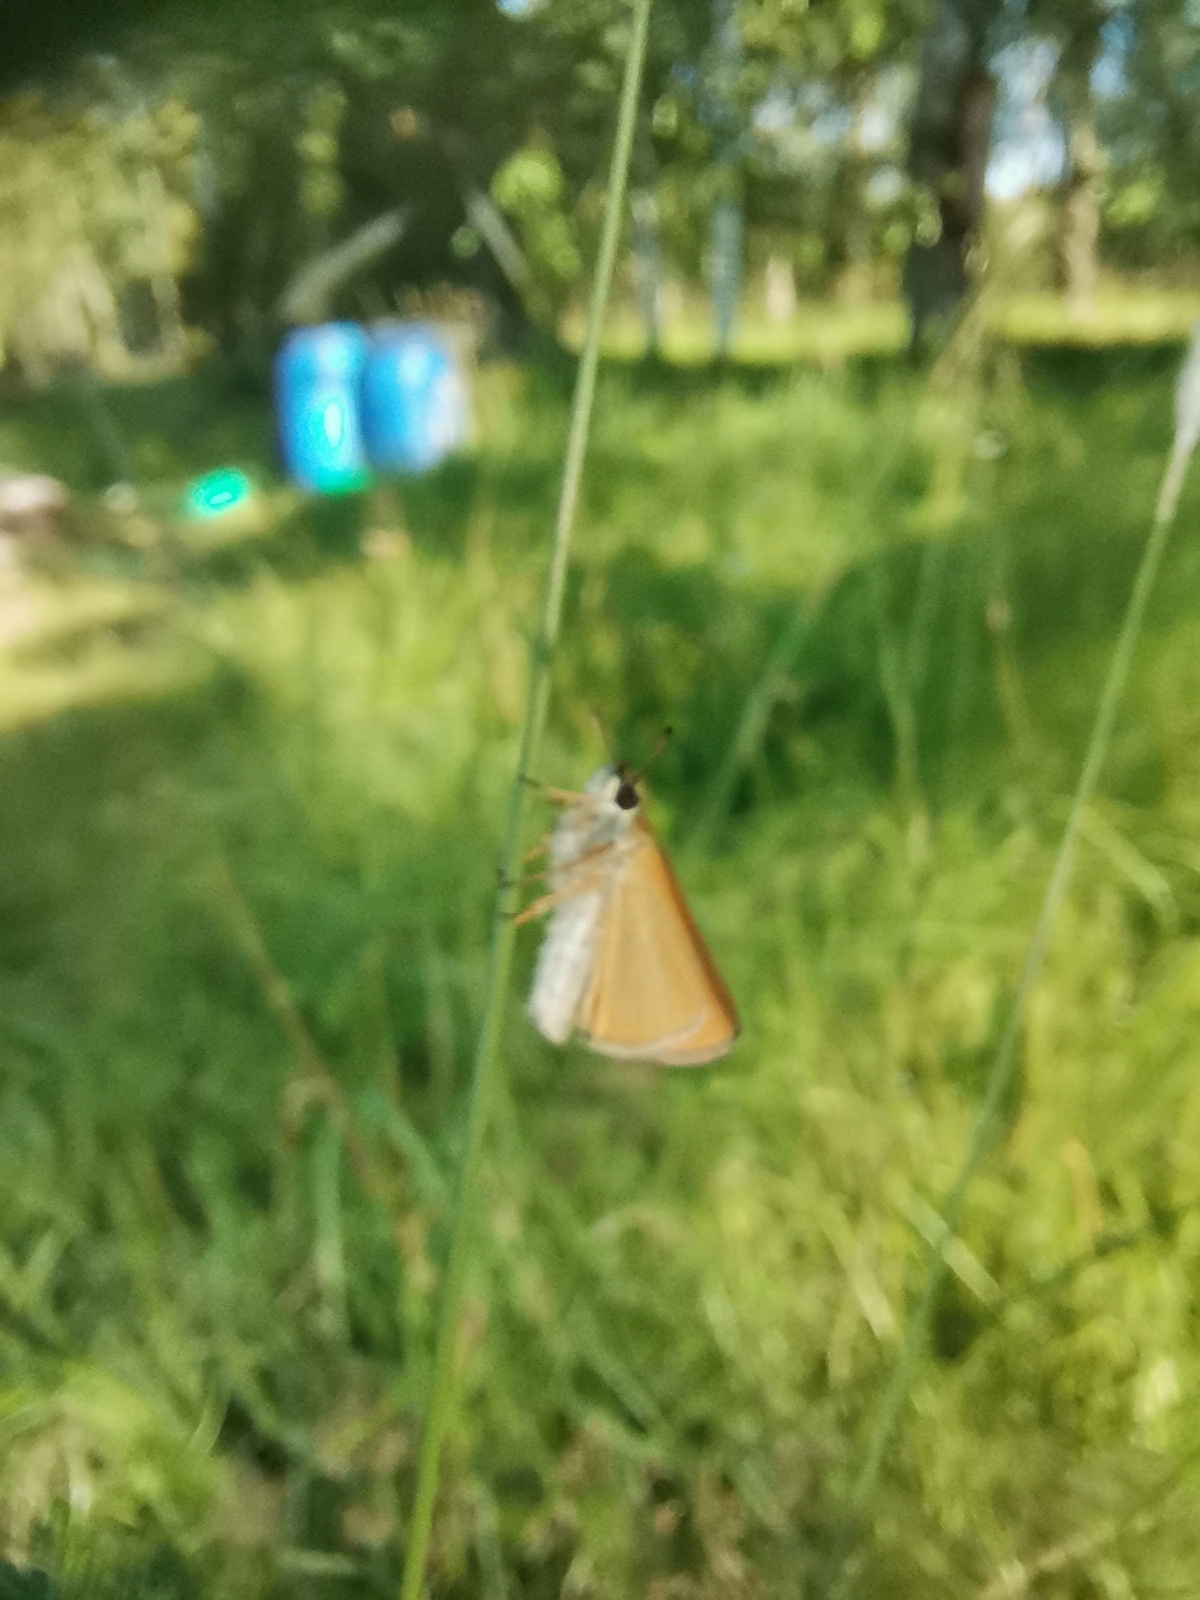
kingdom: Animalia
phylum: Arthropoda
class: Insecta
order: Lepidoptera
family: Hesperiidae
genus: Thymelicus
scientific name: Thymelicus lineola
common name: Essex skipper
